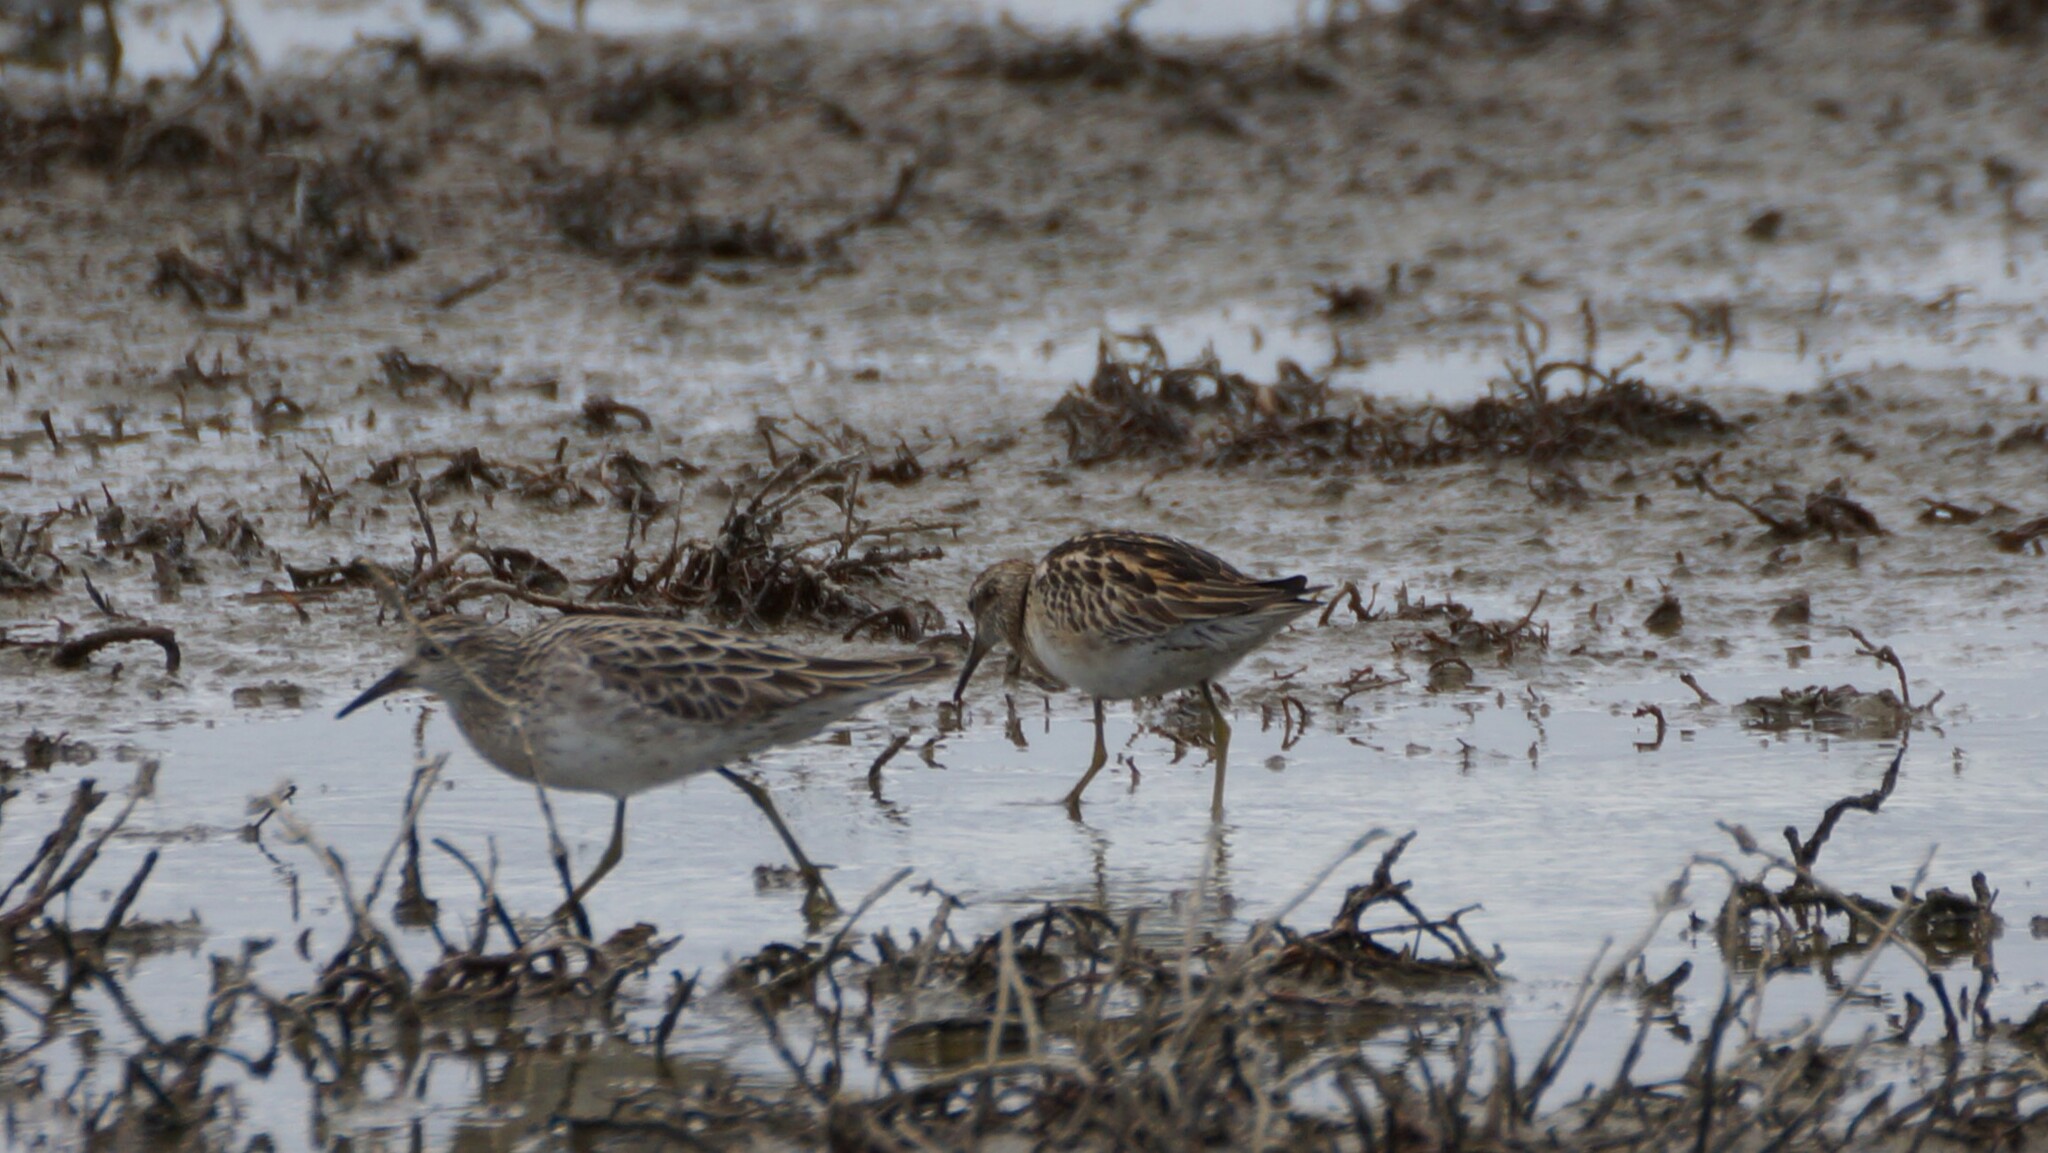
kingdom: Animalia
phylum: Chordata
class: Aves
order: Charadriiformes
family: Scolopacidae
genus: Calidris
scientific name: Calidris acuminata
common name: Sharp-tailed sandpiper
